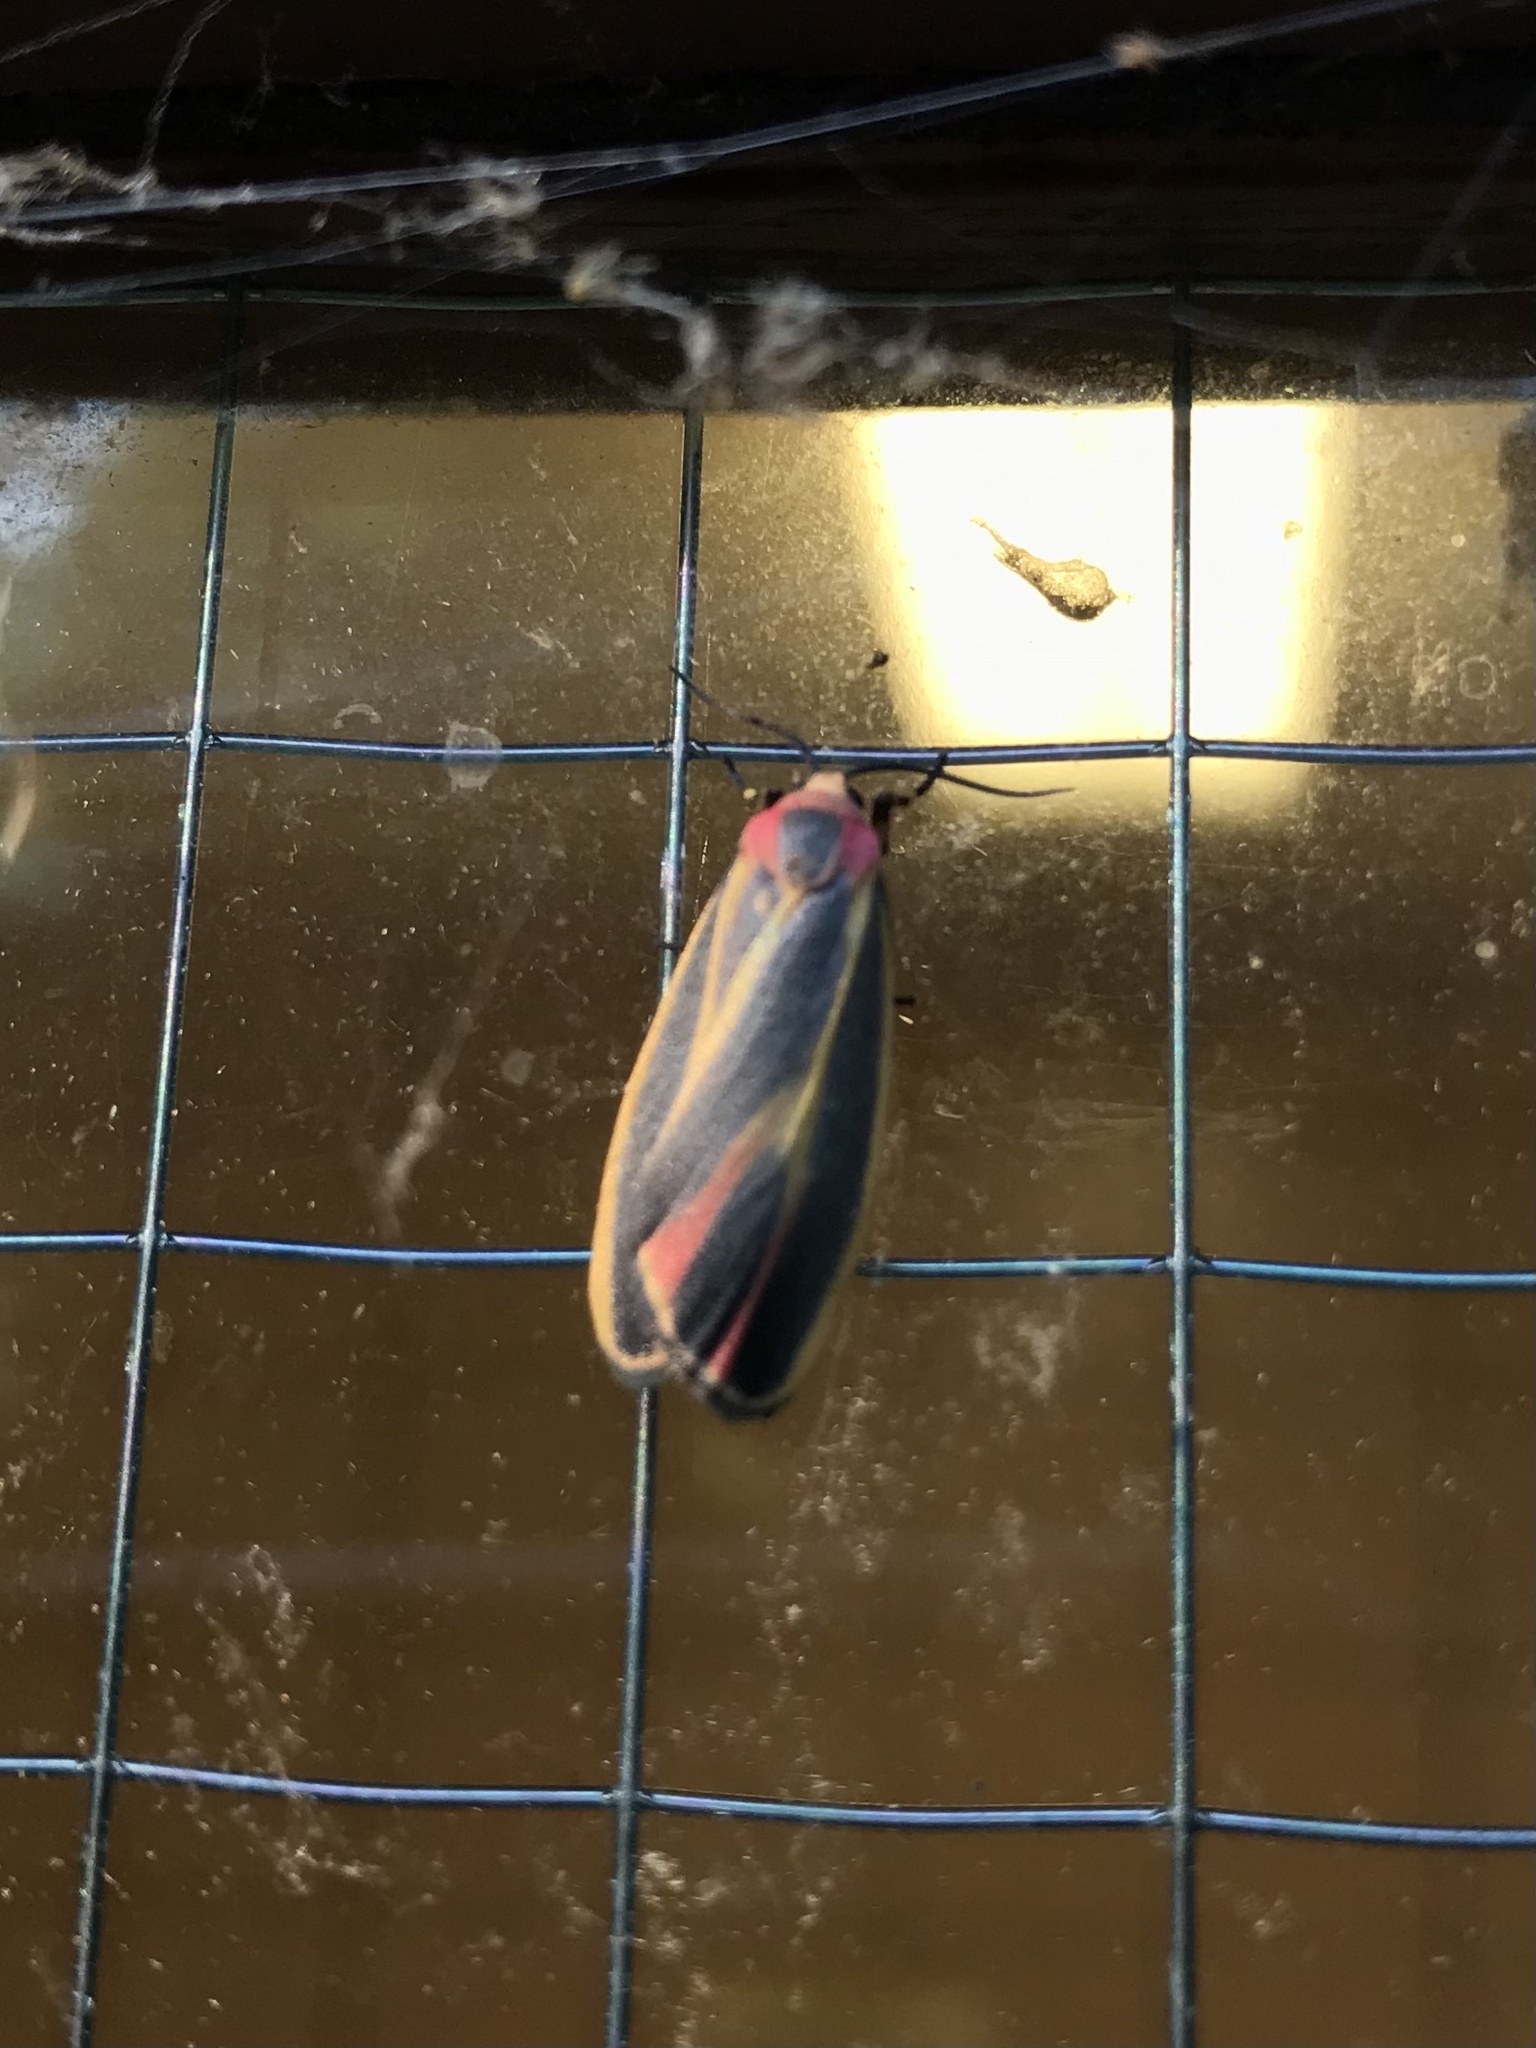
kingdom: Animalia
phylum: Arthropoda
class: Insecta
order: Lepidoptera
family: Erebidae
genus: Hypoprepia
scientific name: Hypoprepia fucosa
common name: Painted lichen moth
